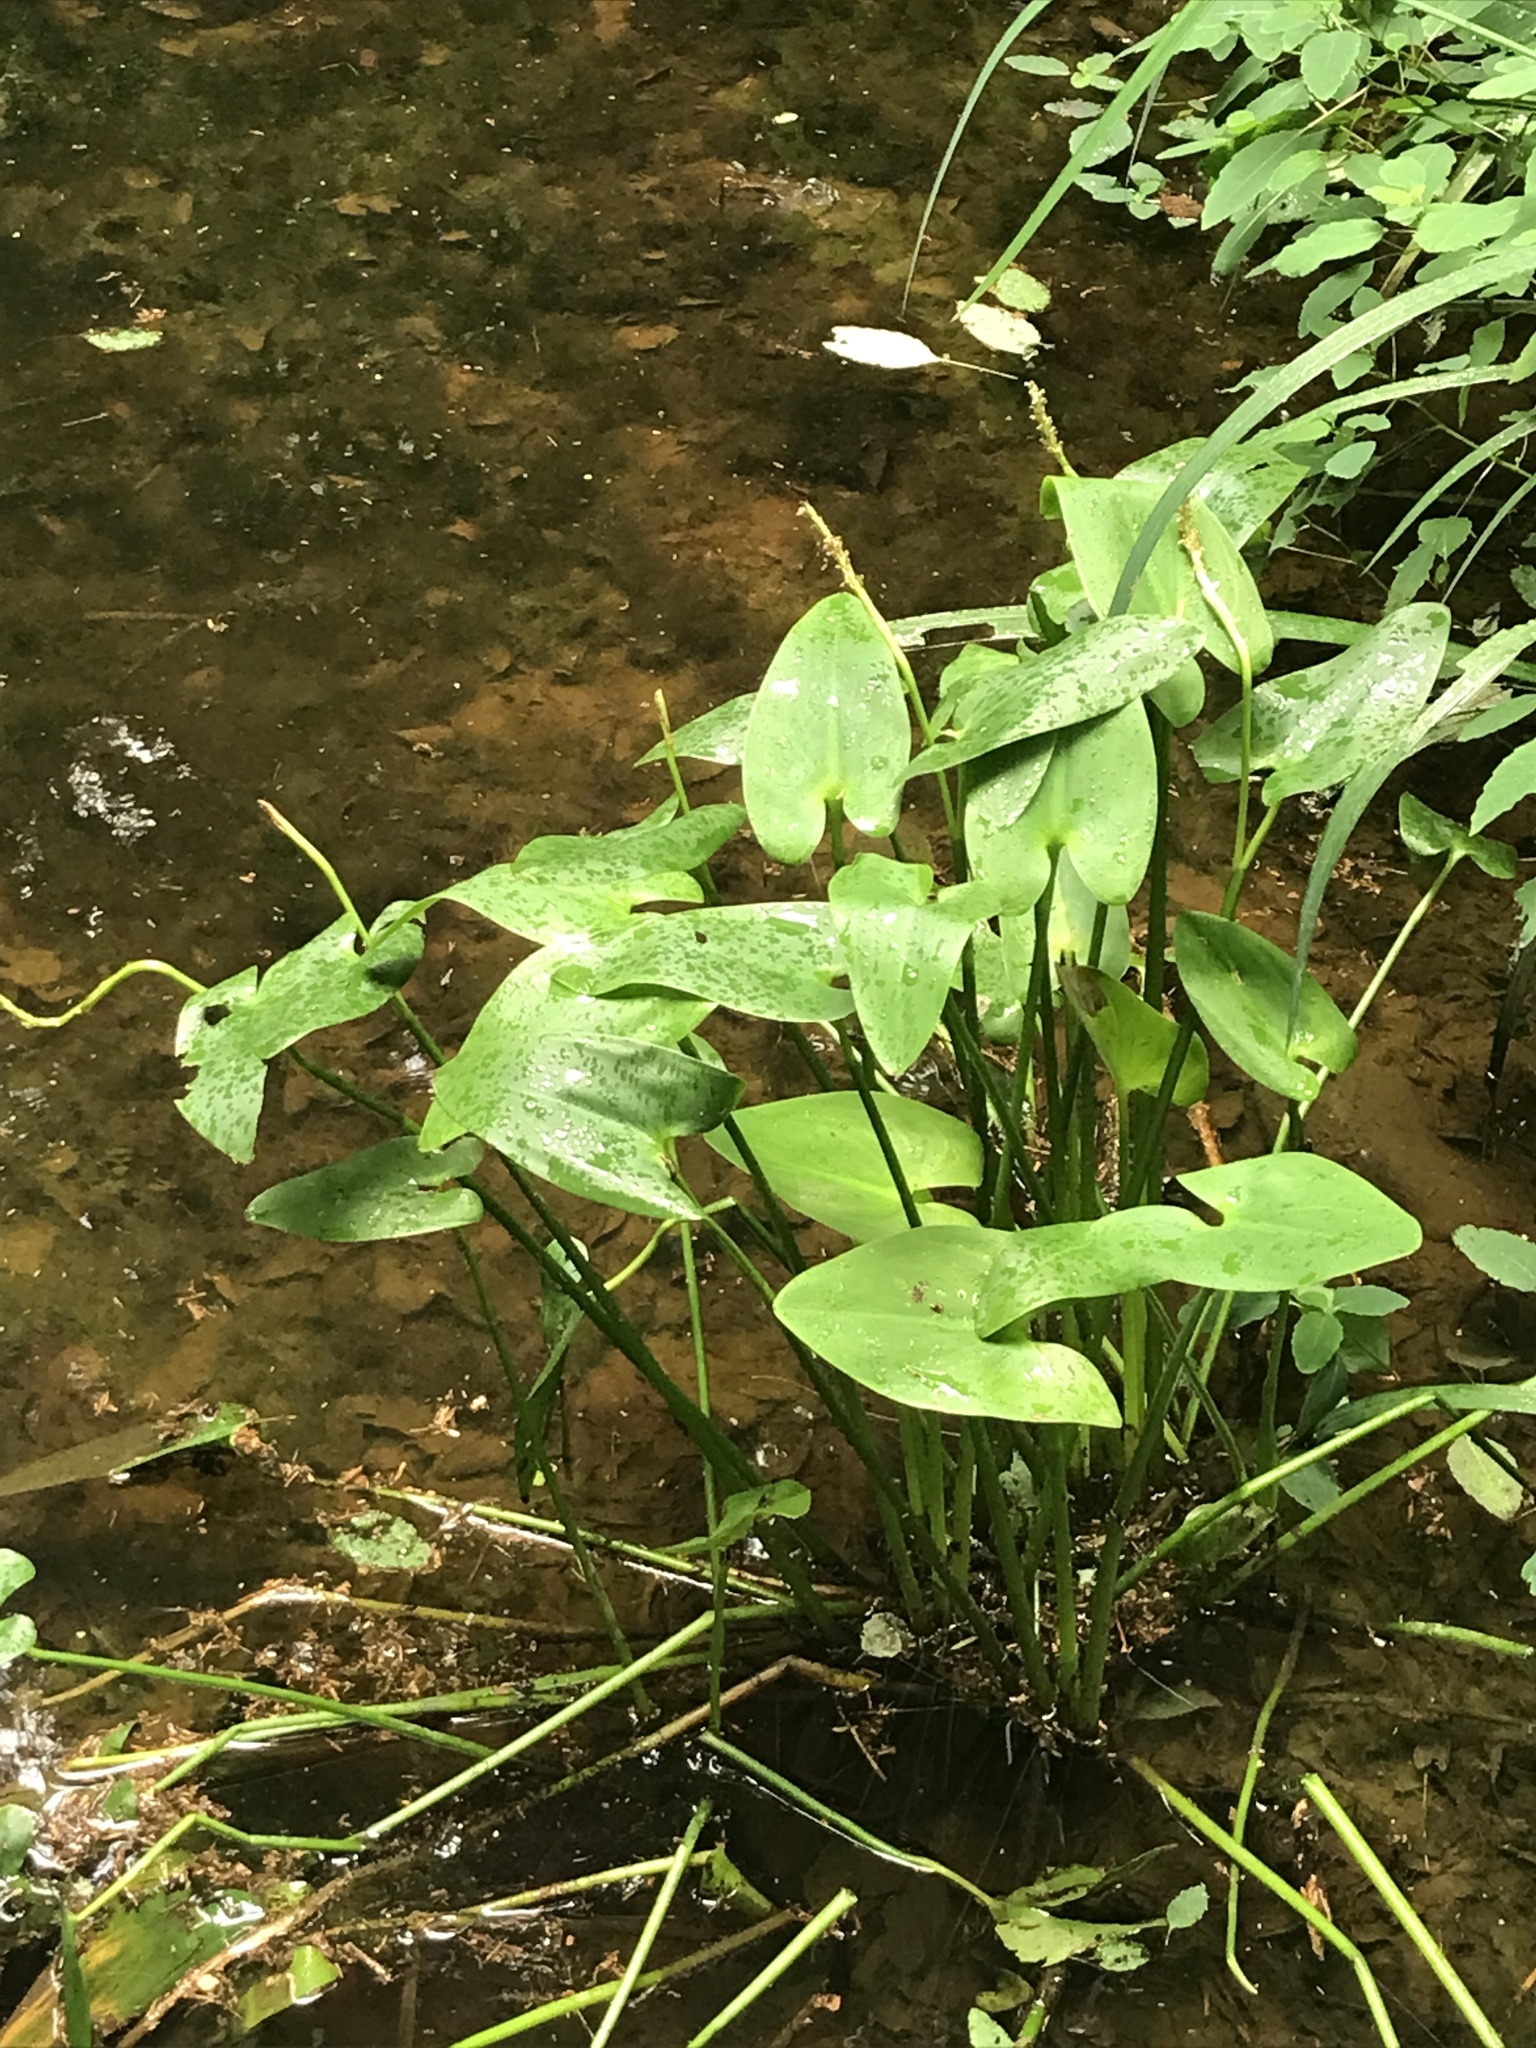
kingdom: Plantae
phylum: Tracheophyta
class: Liliopsida
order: Commelinales
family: Pontederiaceae
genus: Pontederia
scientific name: Pontederia cordata
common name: Pickerelweed
